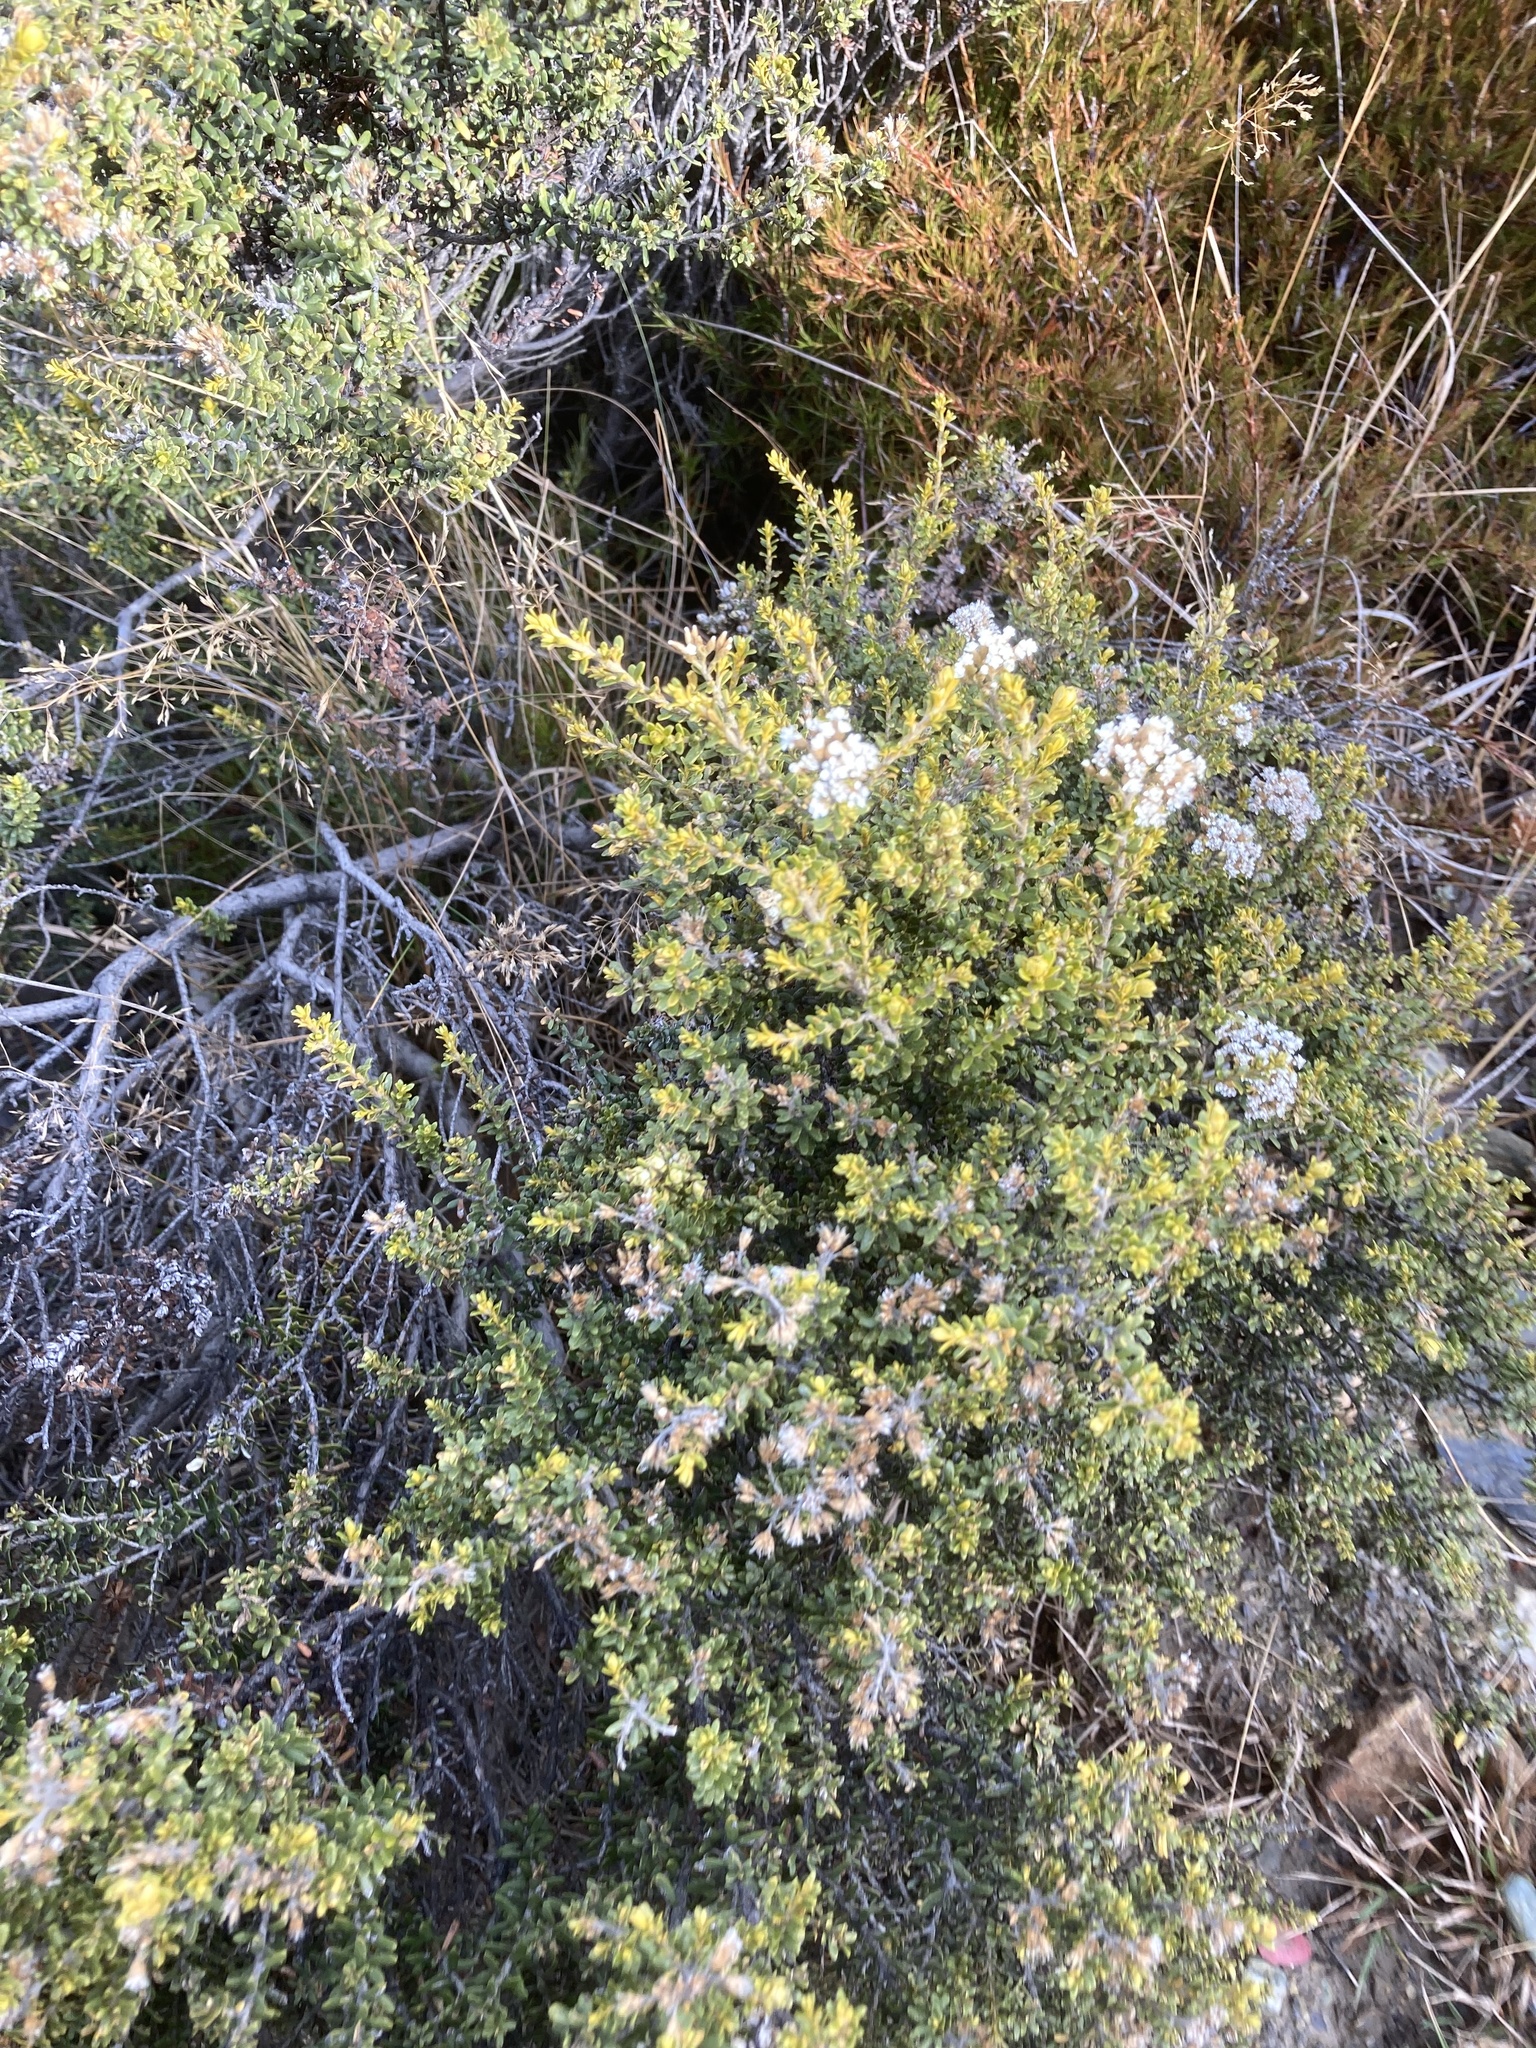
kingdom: Plantae
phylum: Tracheophyta
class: Magnoliopsida
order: Asterales
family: Asteraceae
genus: Ozothamnus
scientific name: Ozothamnus leptophyllus
